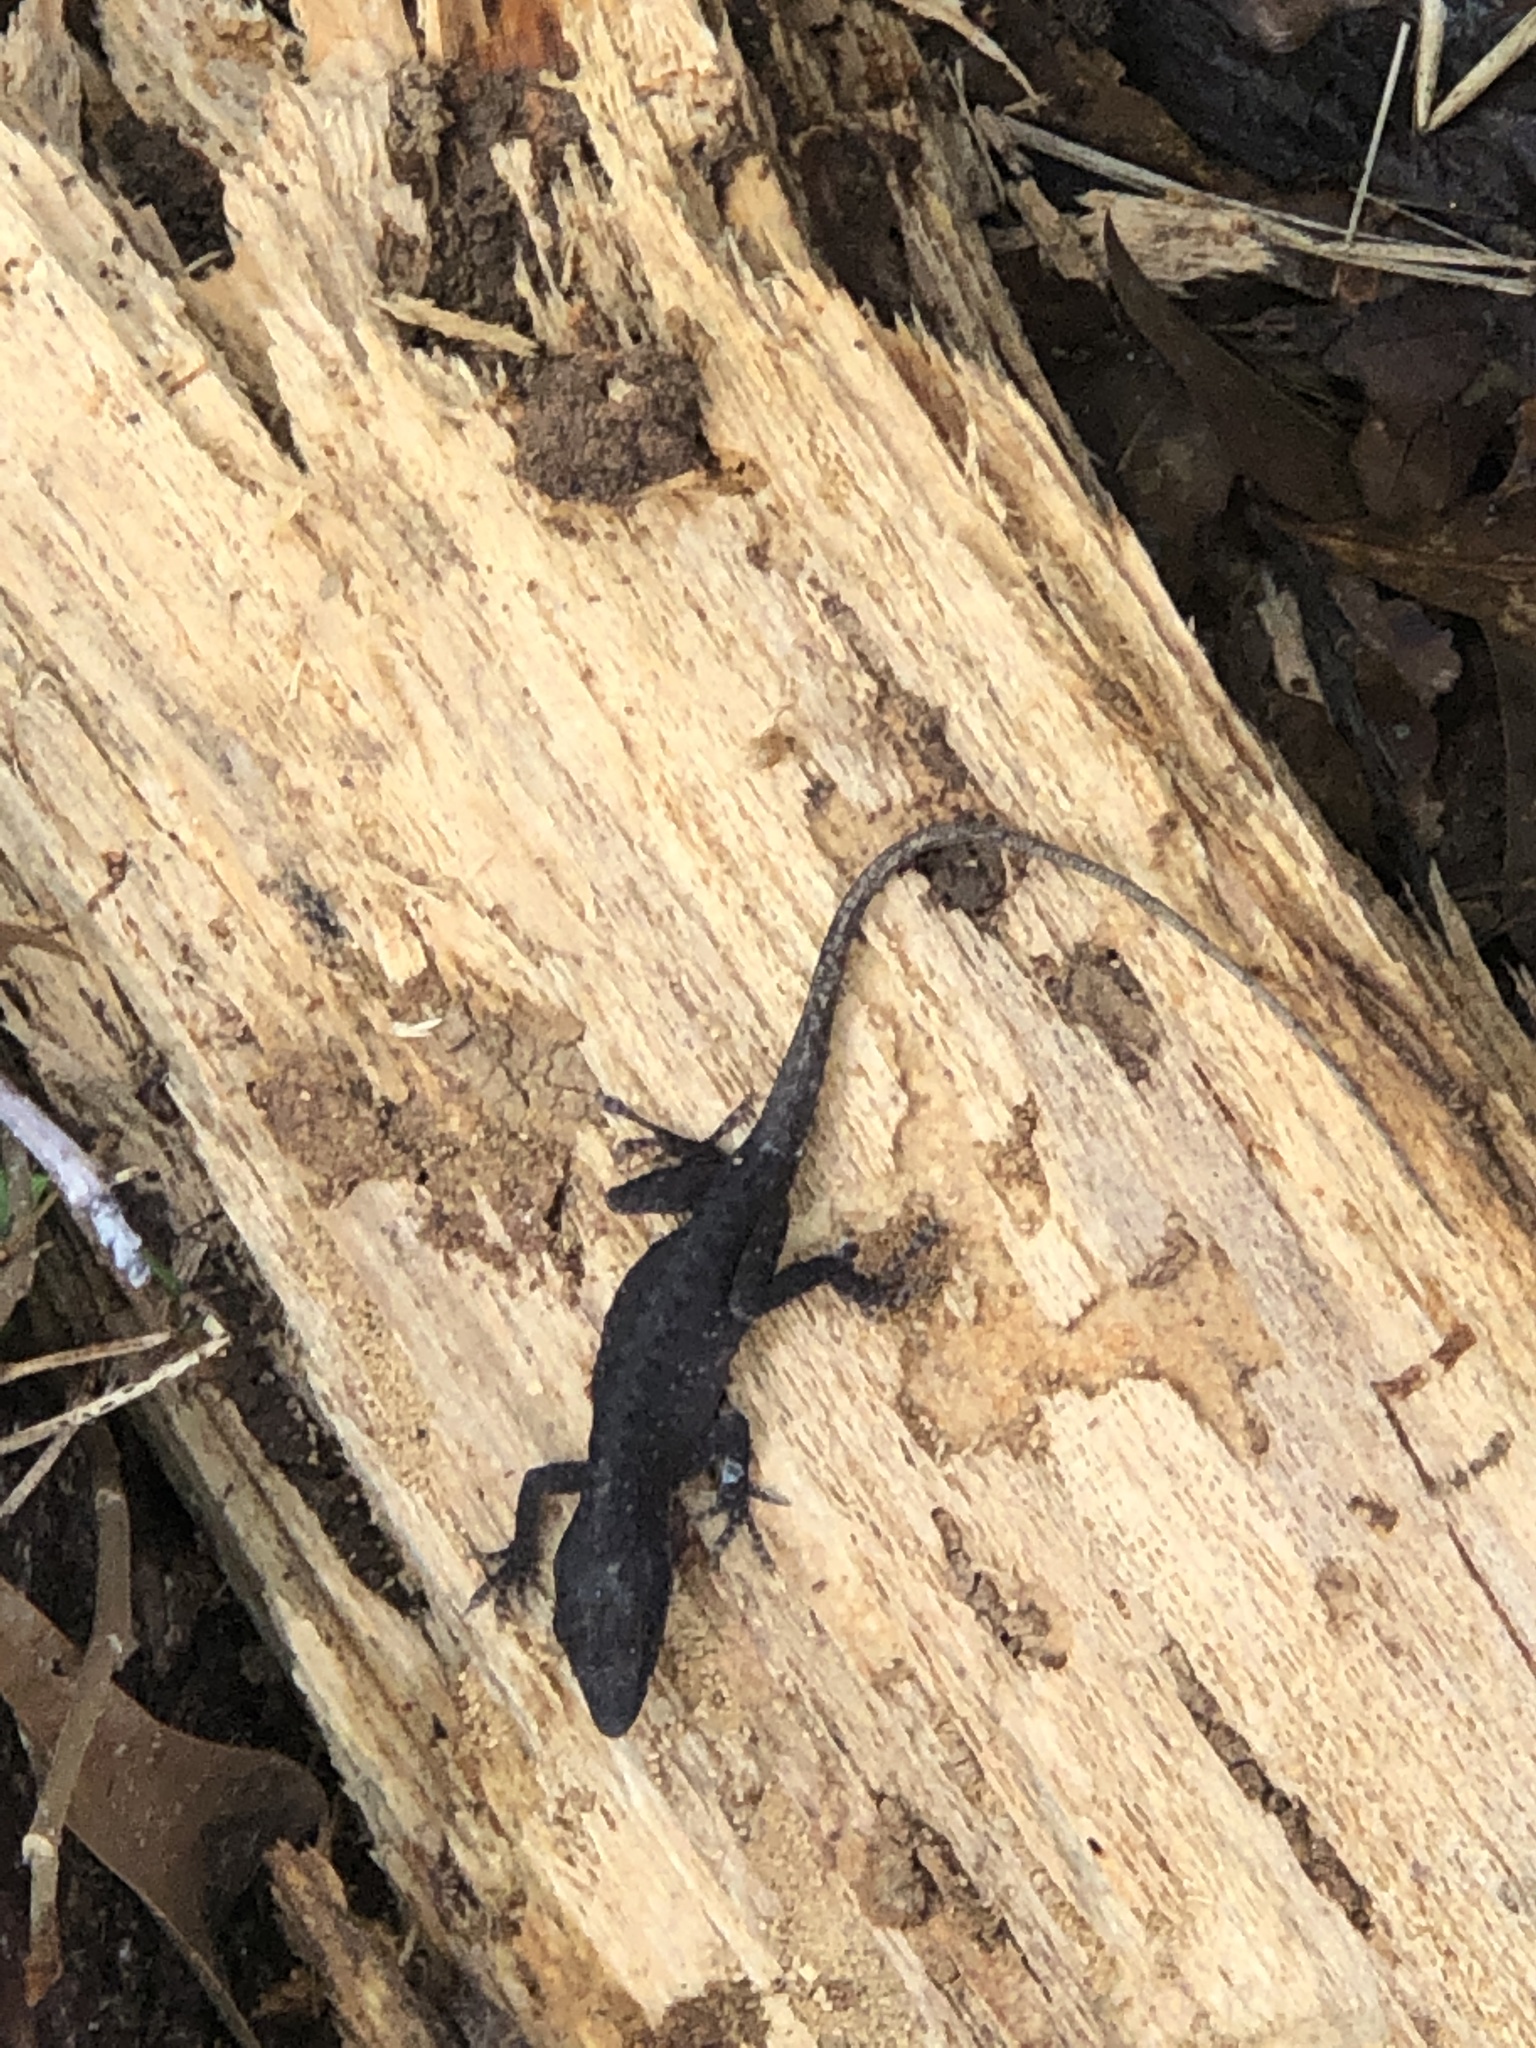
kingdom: Animalia
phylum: Chordata
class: Squamata
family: Dactyloidae
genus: Anolis
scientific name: Anolis carolinensis
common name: Green anole
